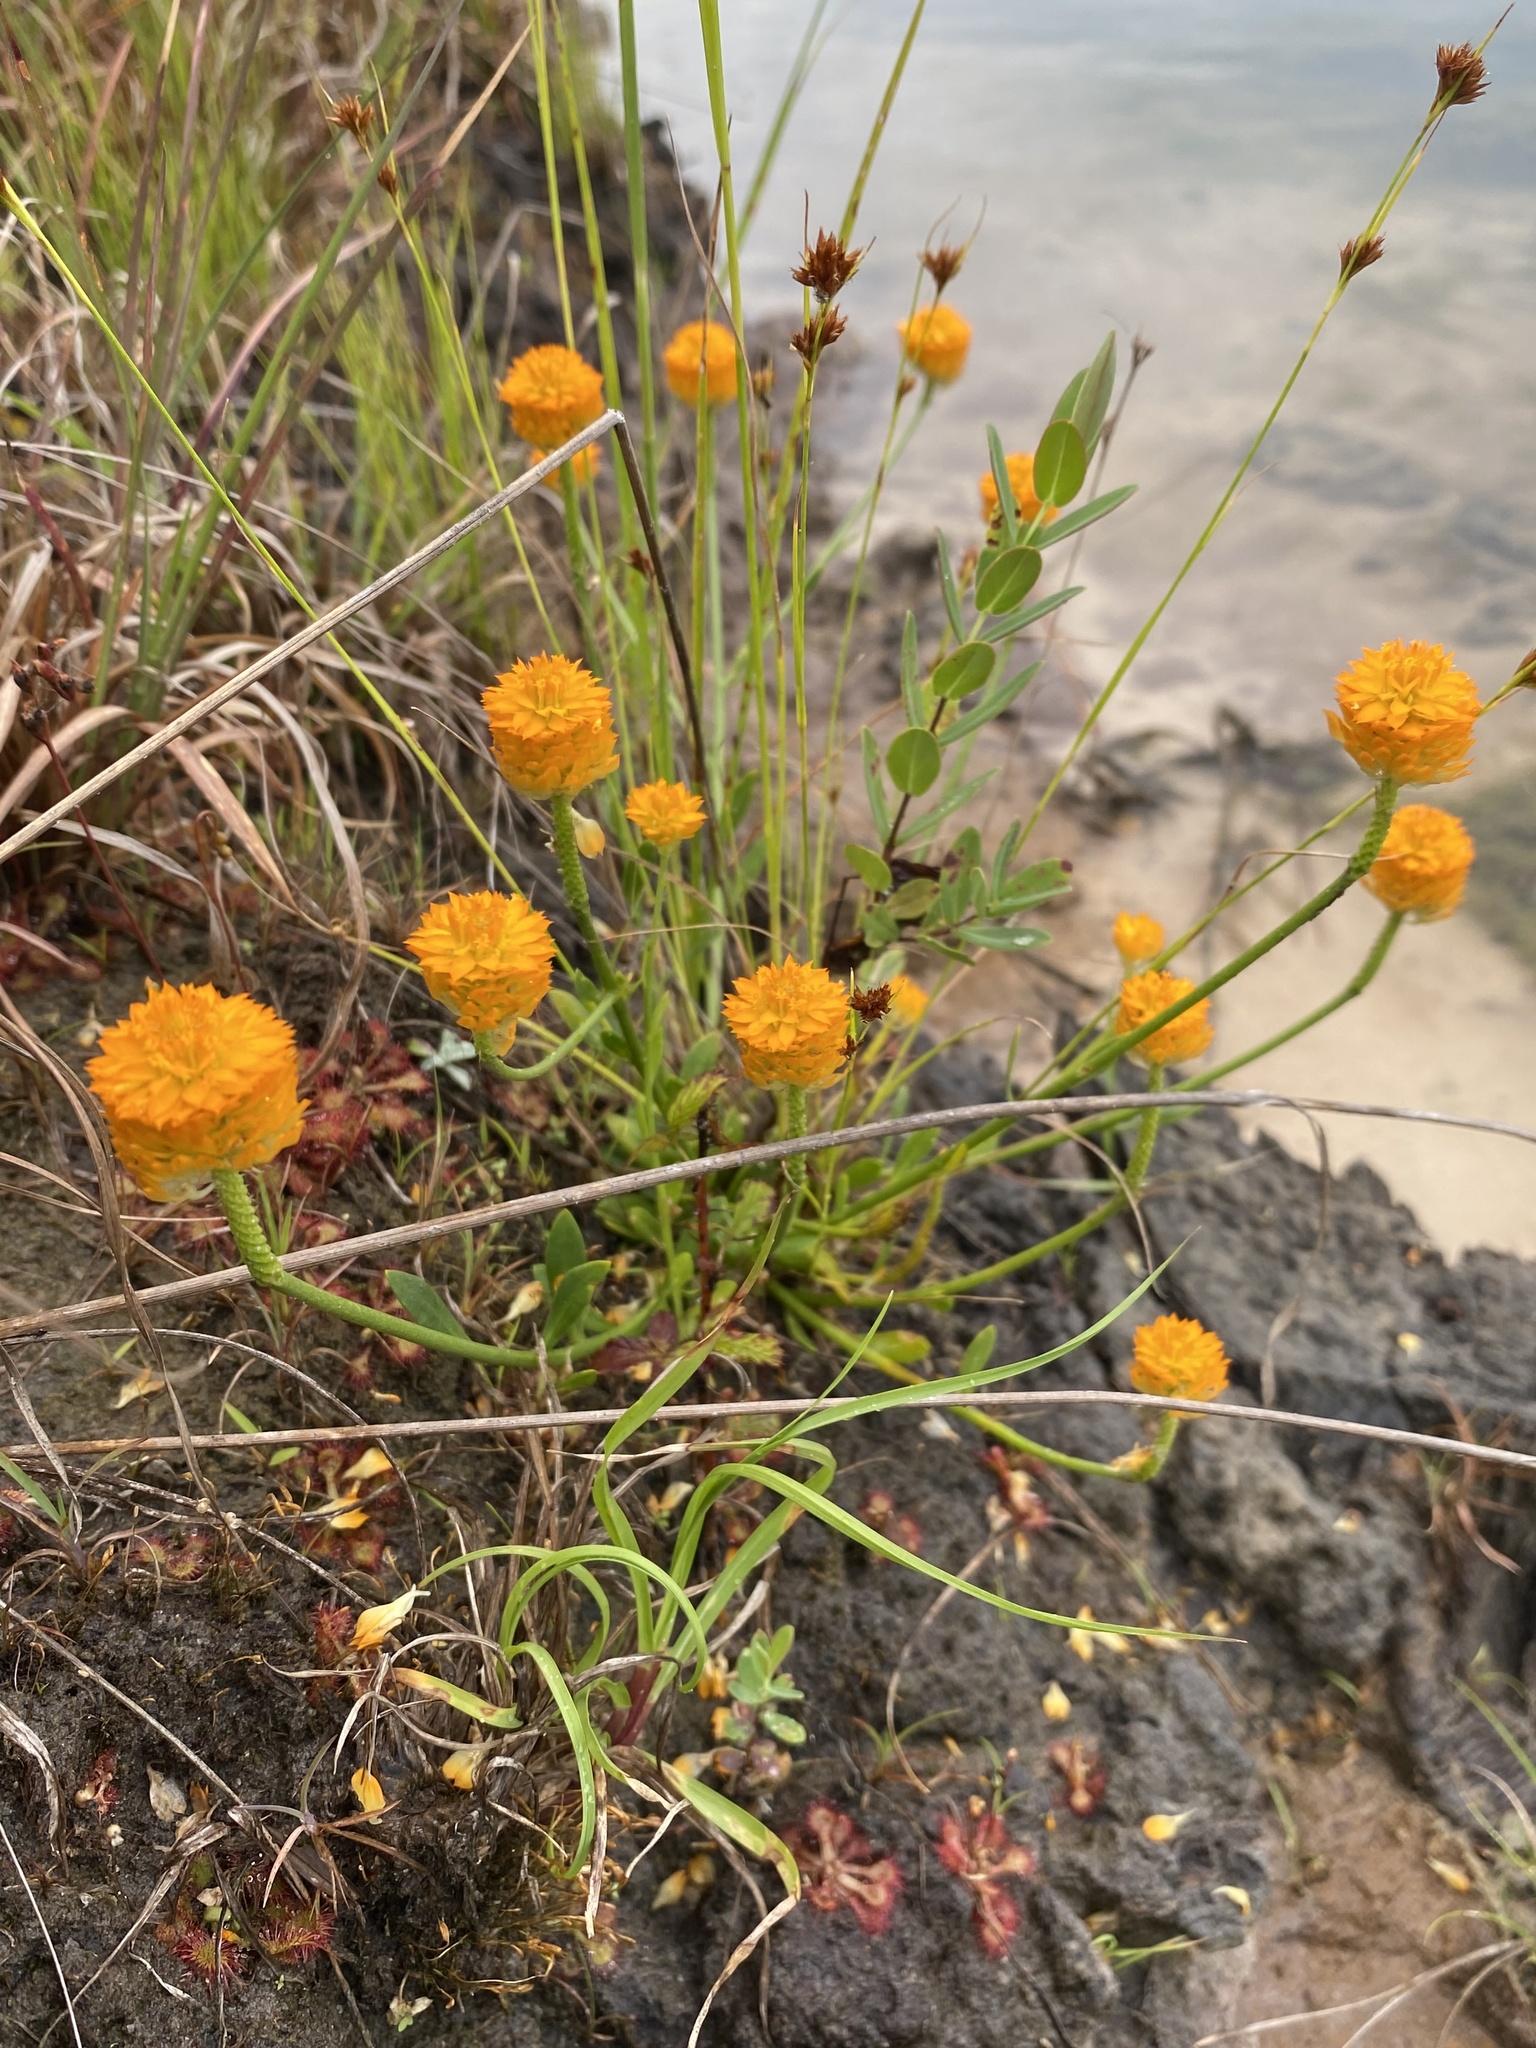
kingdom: Plantae
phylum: Tracheophyta
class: Magnoliopsida
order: Fabales
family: Polygalaceae
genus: Polygala
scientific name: Polygala lutea
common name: Orange milkwort
